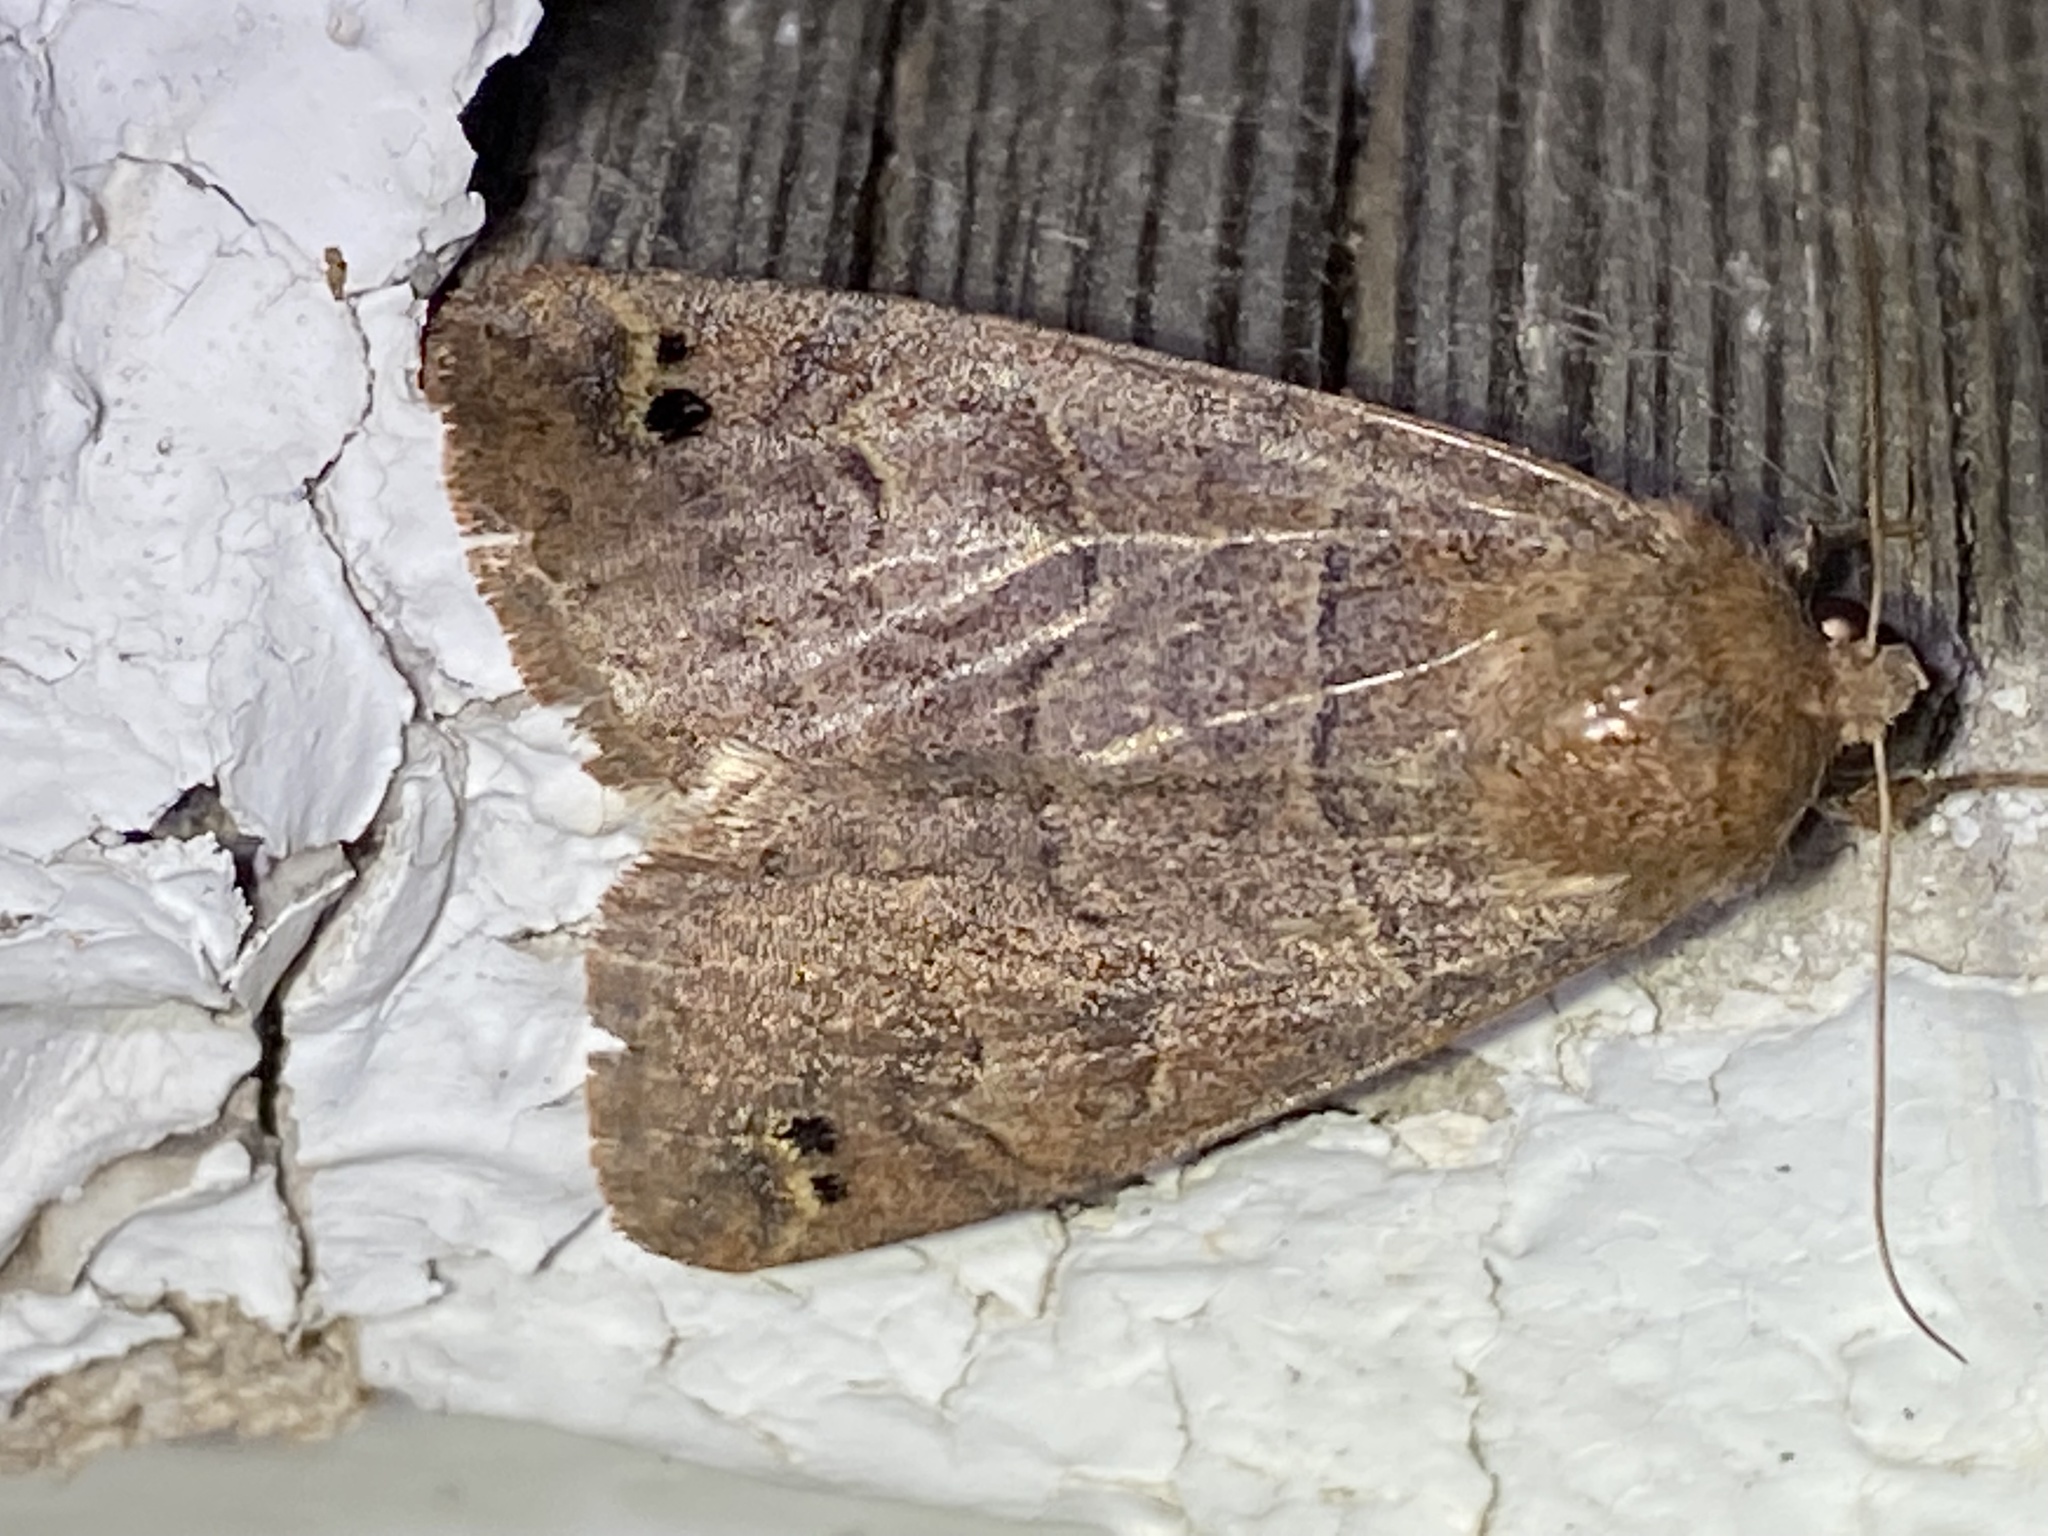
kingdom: Animalia
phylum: Arthropoda
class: Insecta
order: Lepidoptera
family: Erebidae
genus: Cissusa
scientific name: Cissusa spadix
